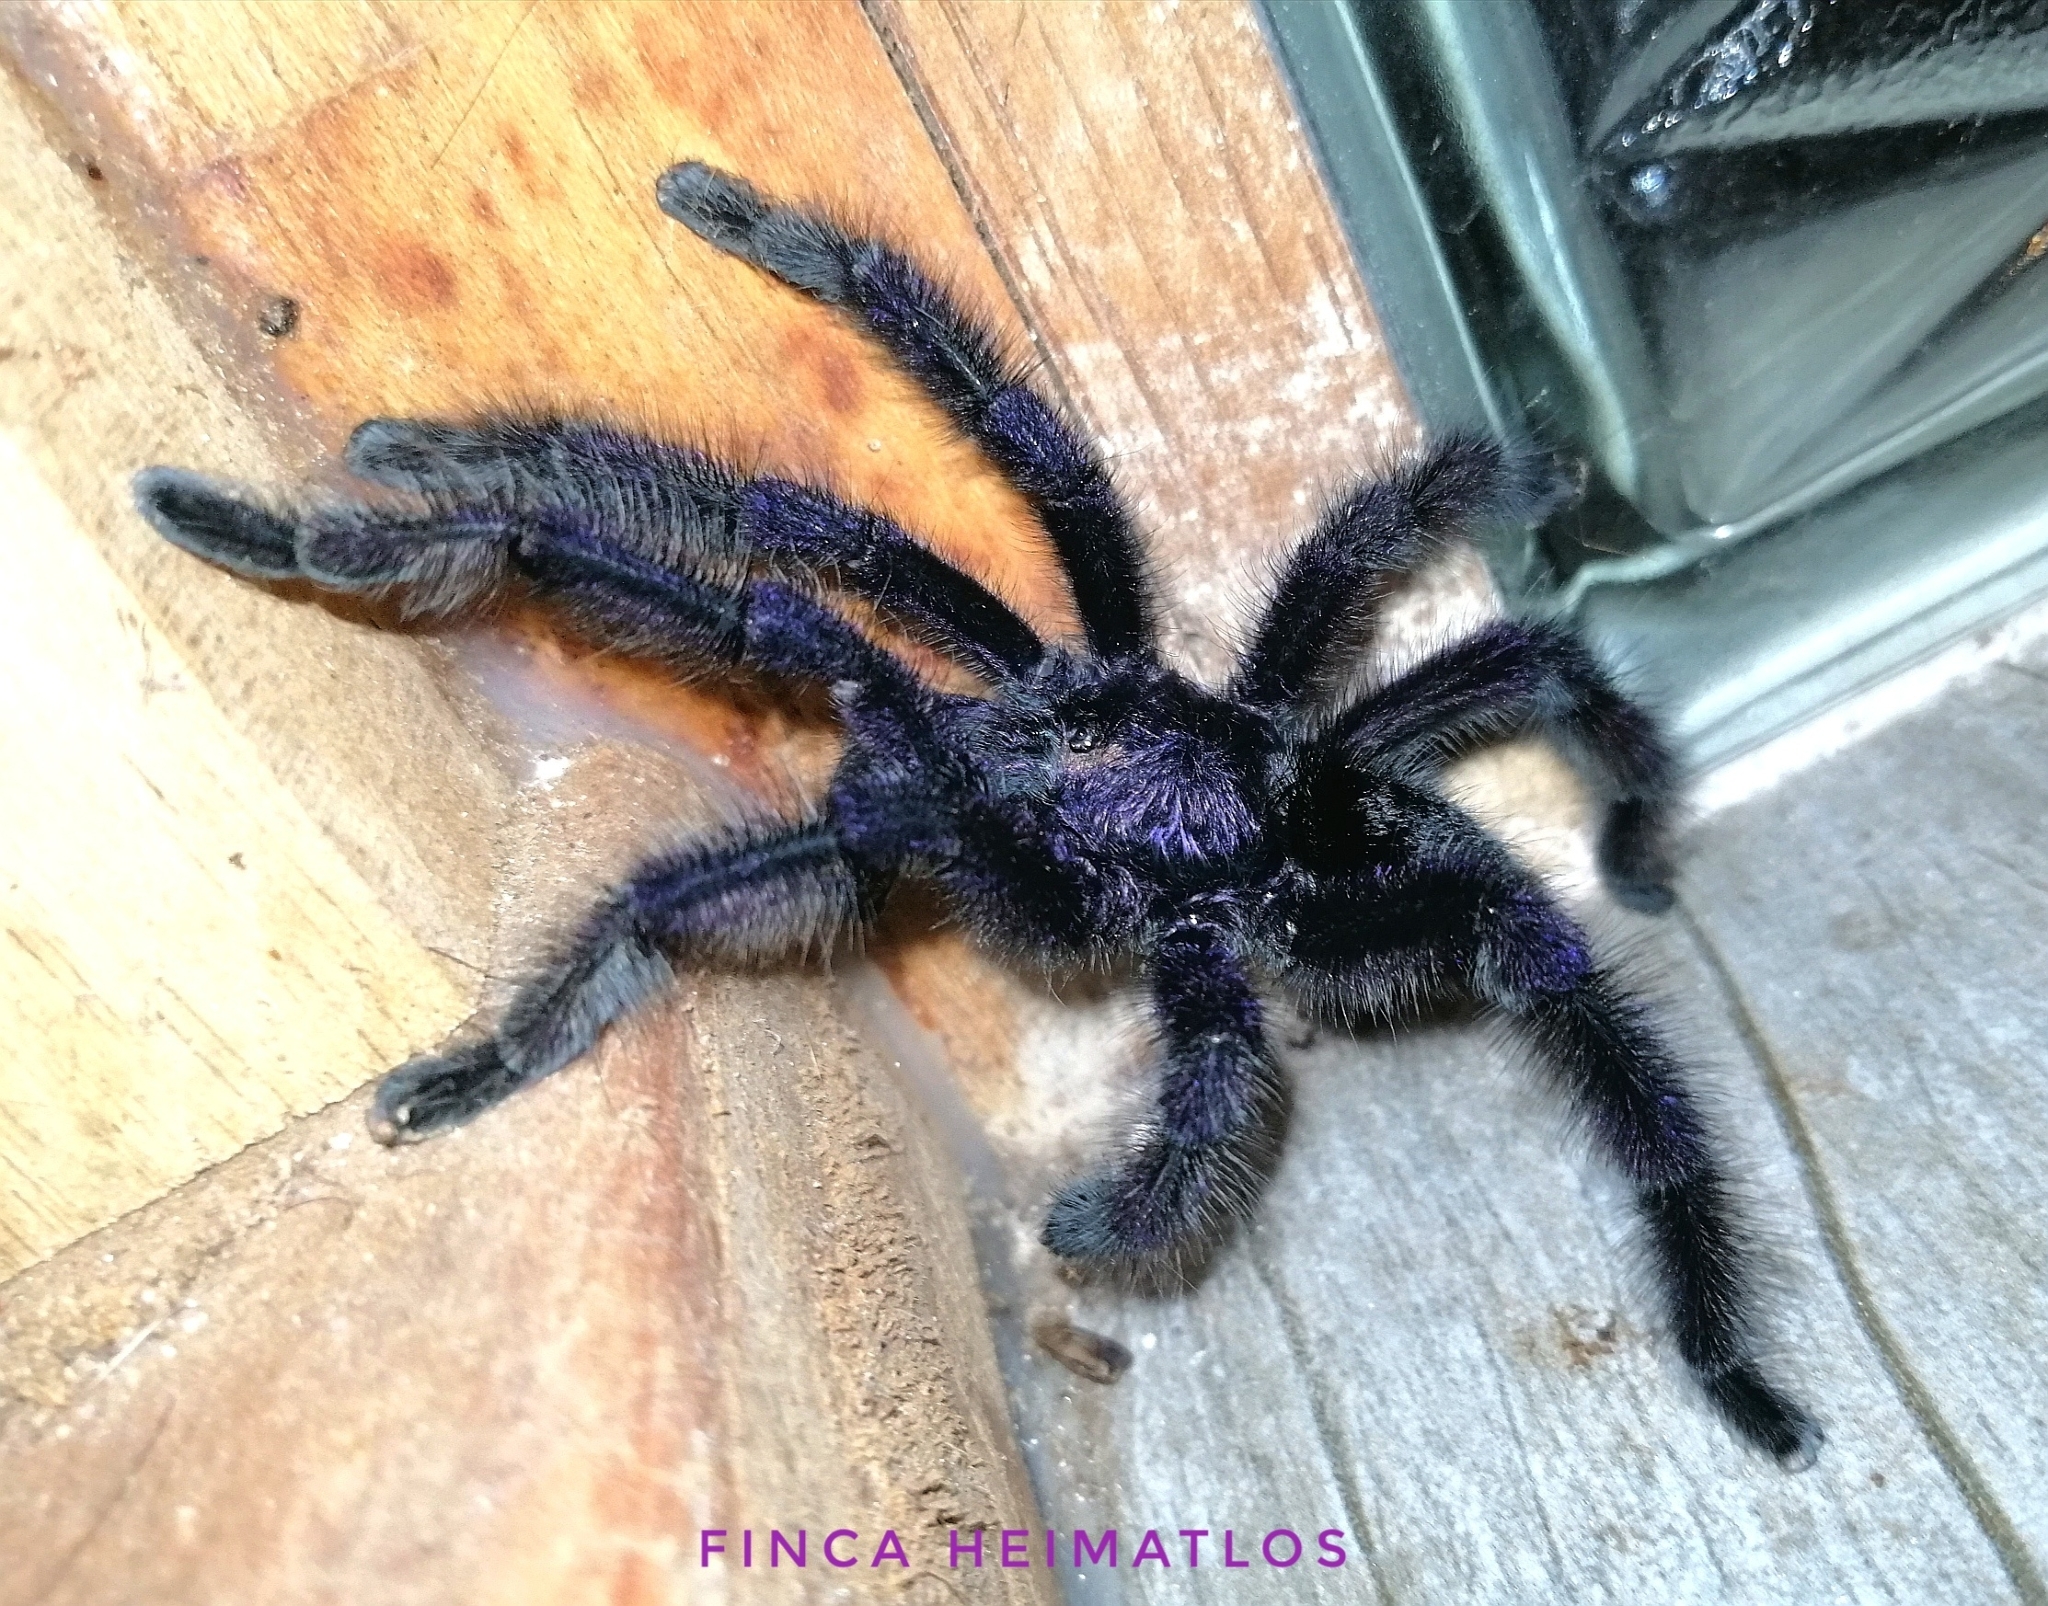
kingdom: Animalia
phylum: Arthropoda
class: Arachnida
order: Araneae
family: Theraphosidae
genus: Avicularia
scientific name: Avicularia purpurea
